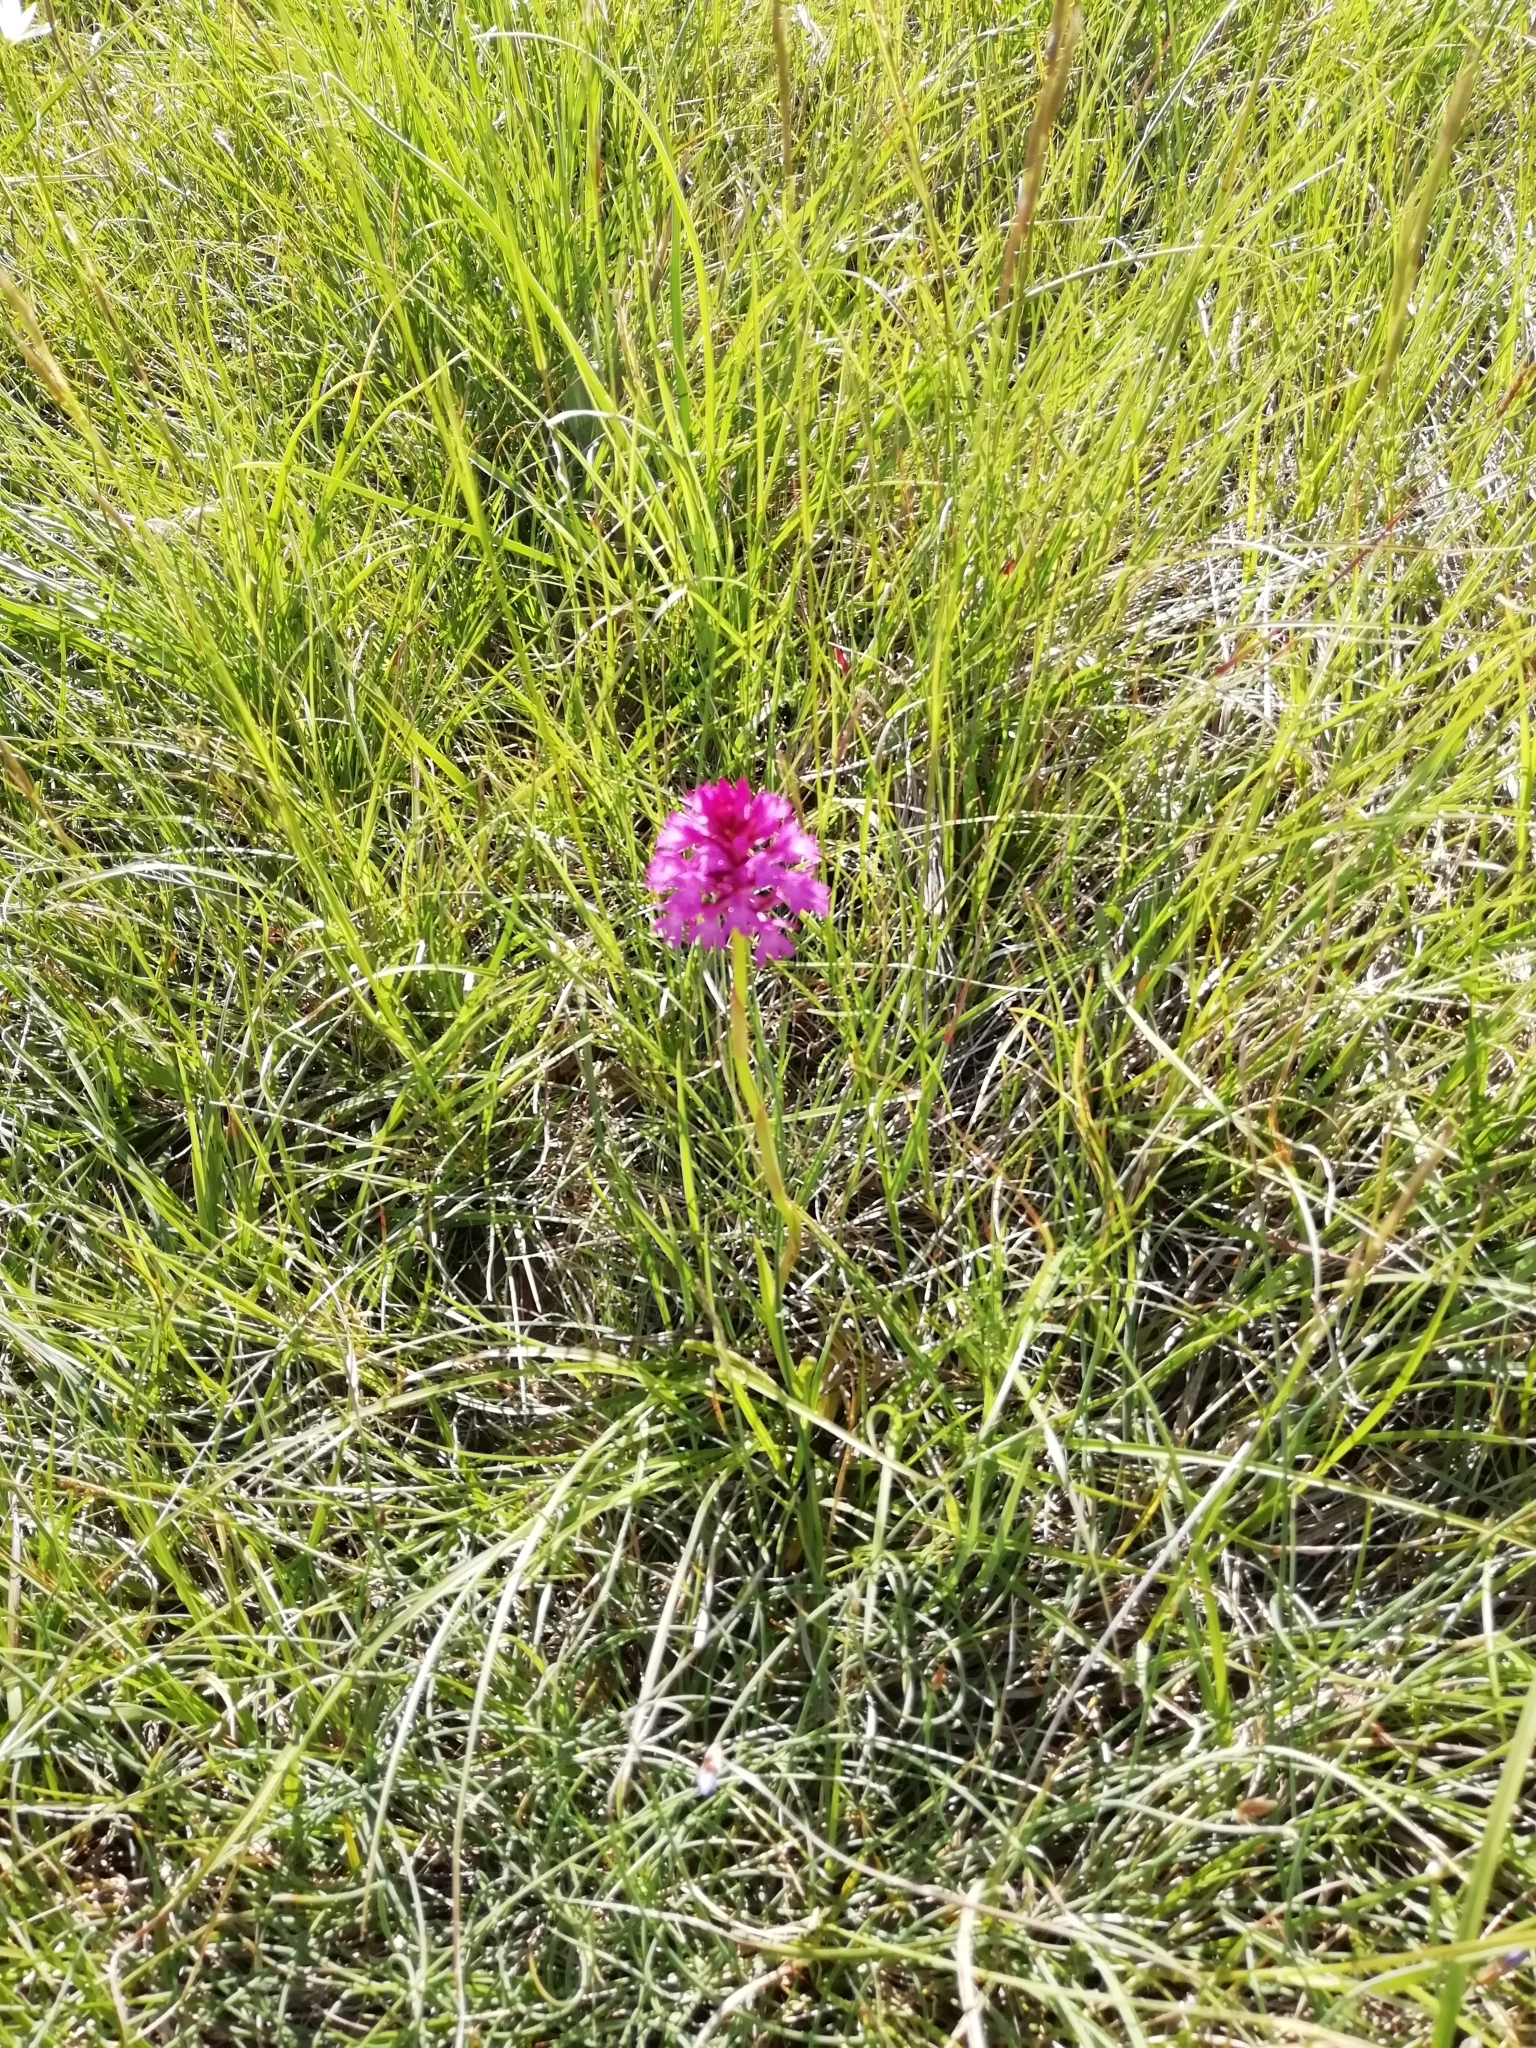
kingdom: Plantae
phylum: Tracheophyta
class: Liliopsida
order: Asparagales
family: Orchidaceae
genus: Anacamptis
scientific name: Anacamptis pyramidalis
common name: Pyramidal orchid
